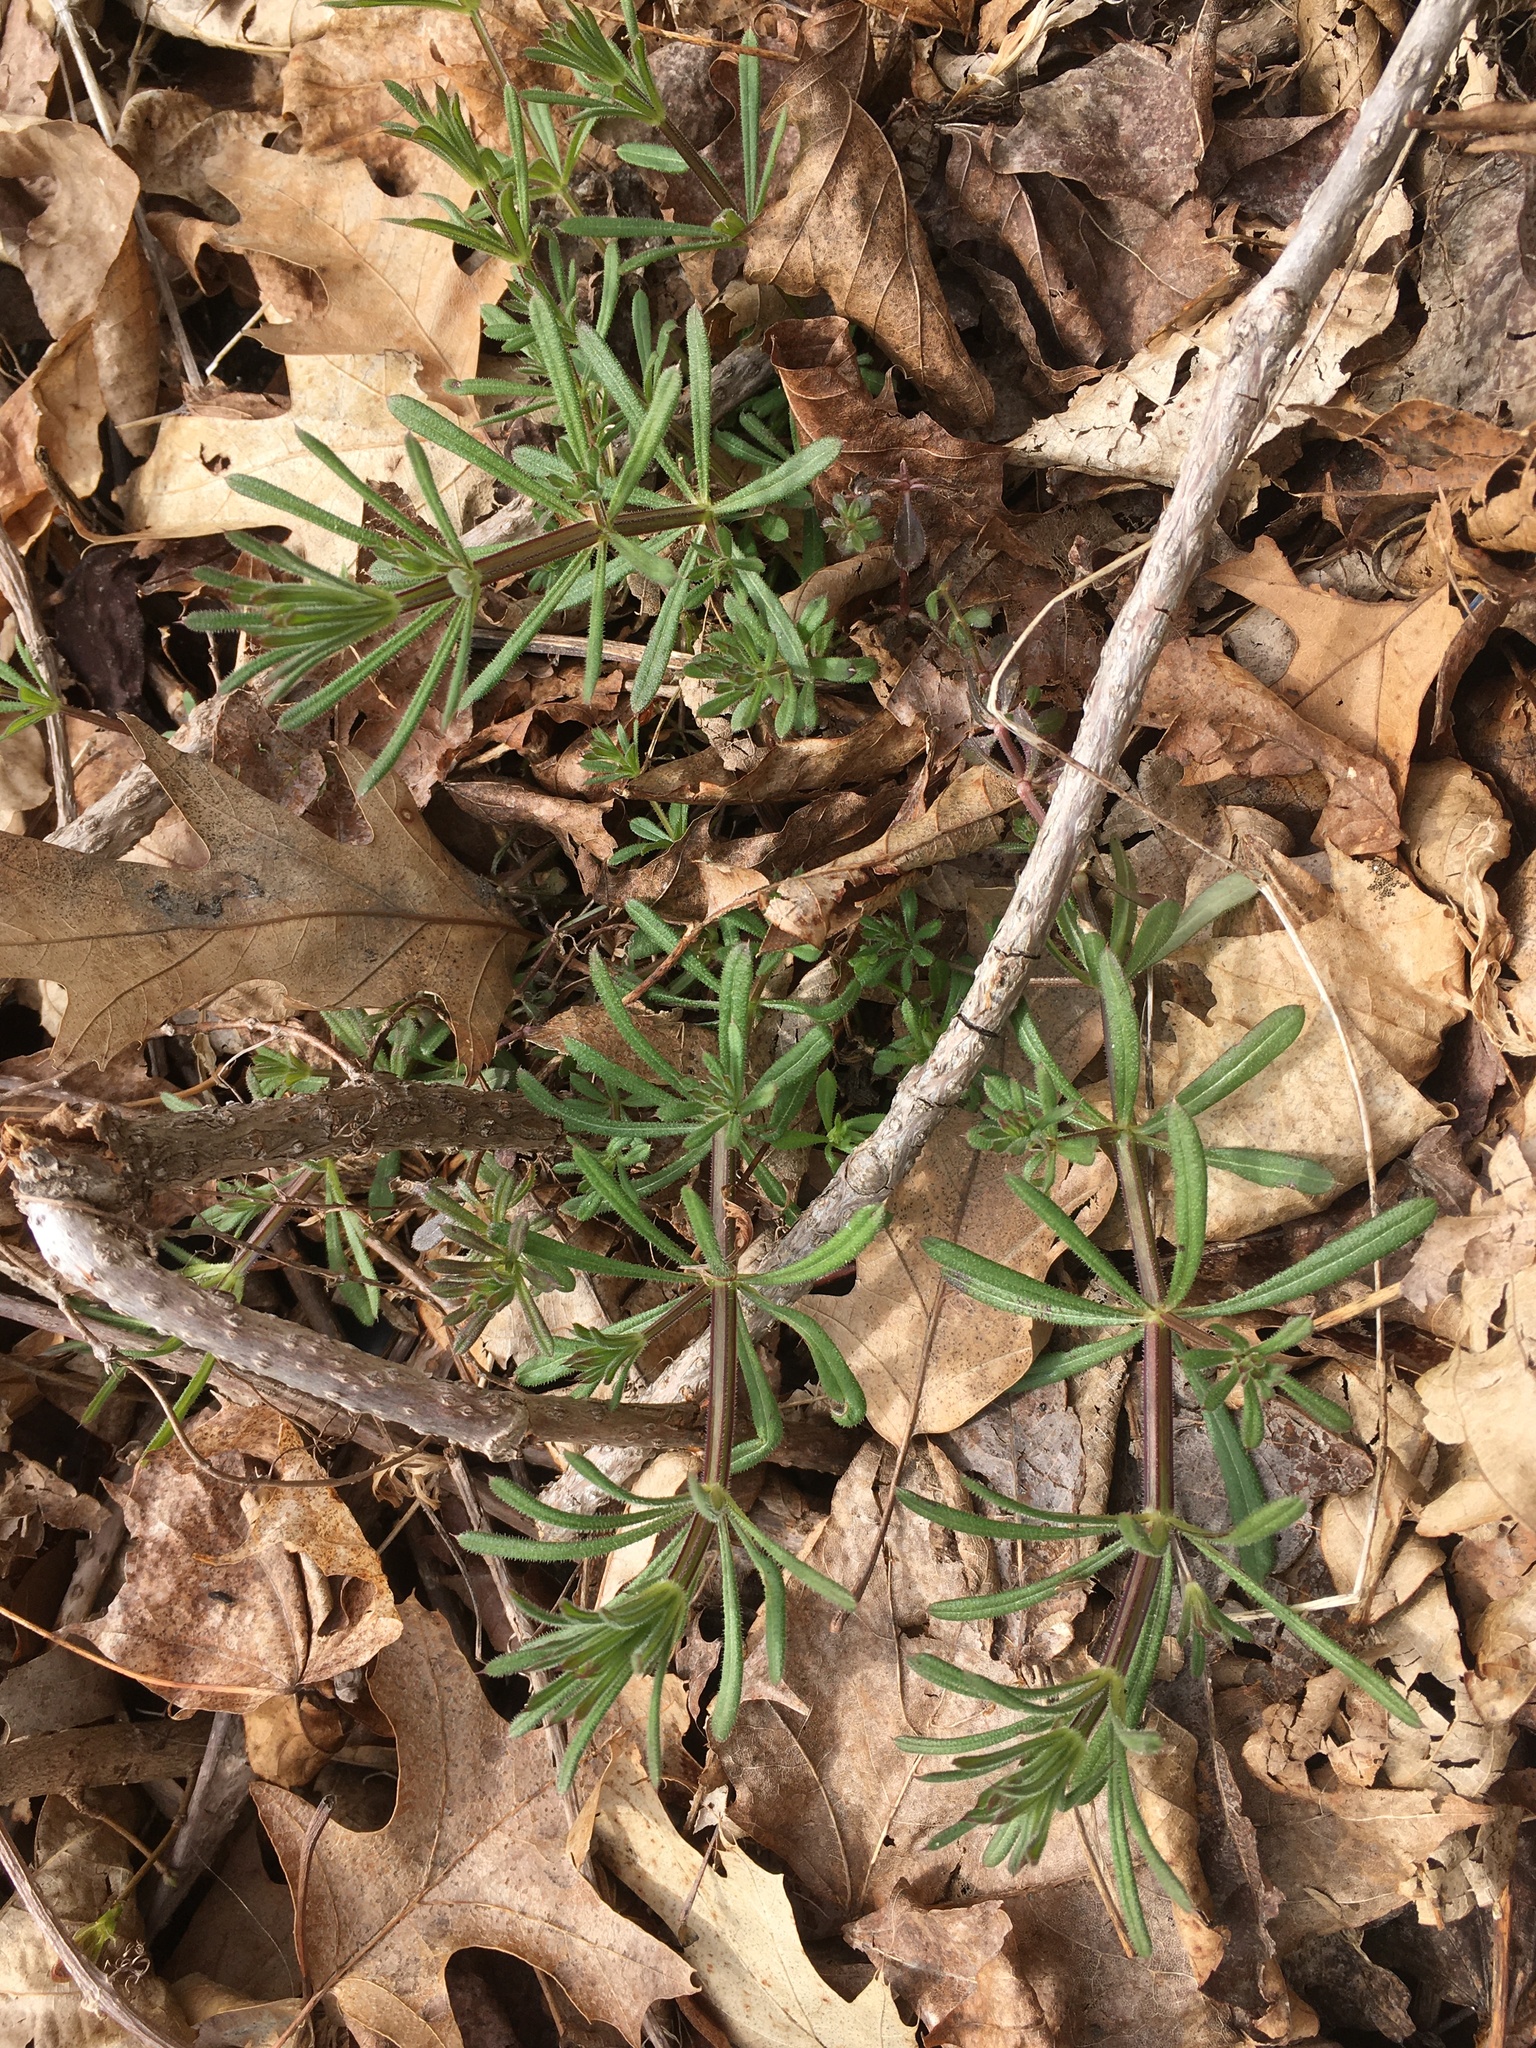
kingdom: Plantae
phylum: Tracheophyta
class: Magnoliopsida
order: Gentianales
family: Rubiaceae
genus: Galium
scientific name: Galium aparine
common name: Cleavers
